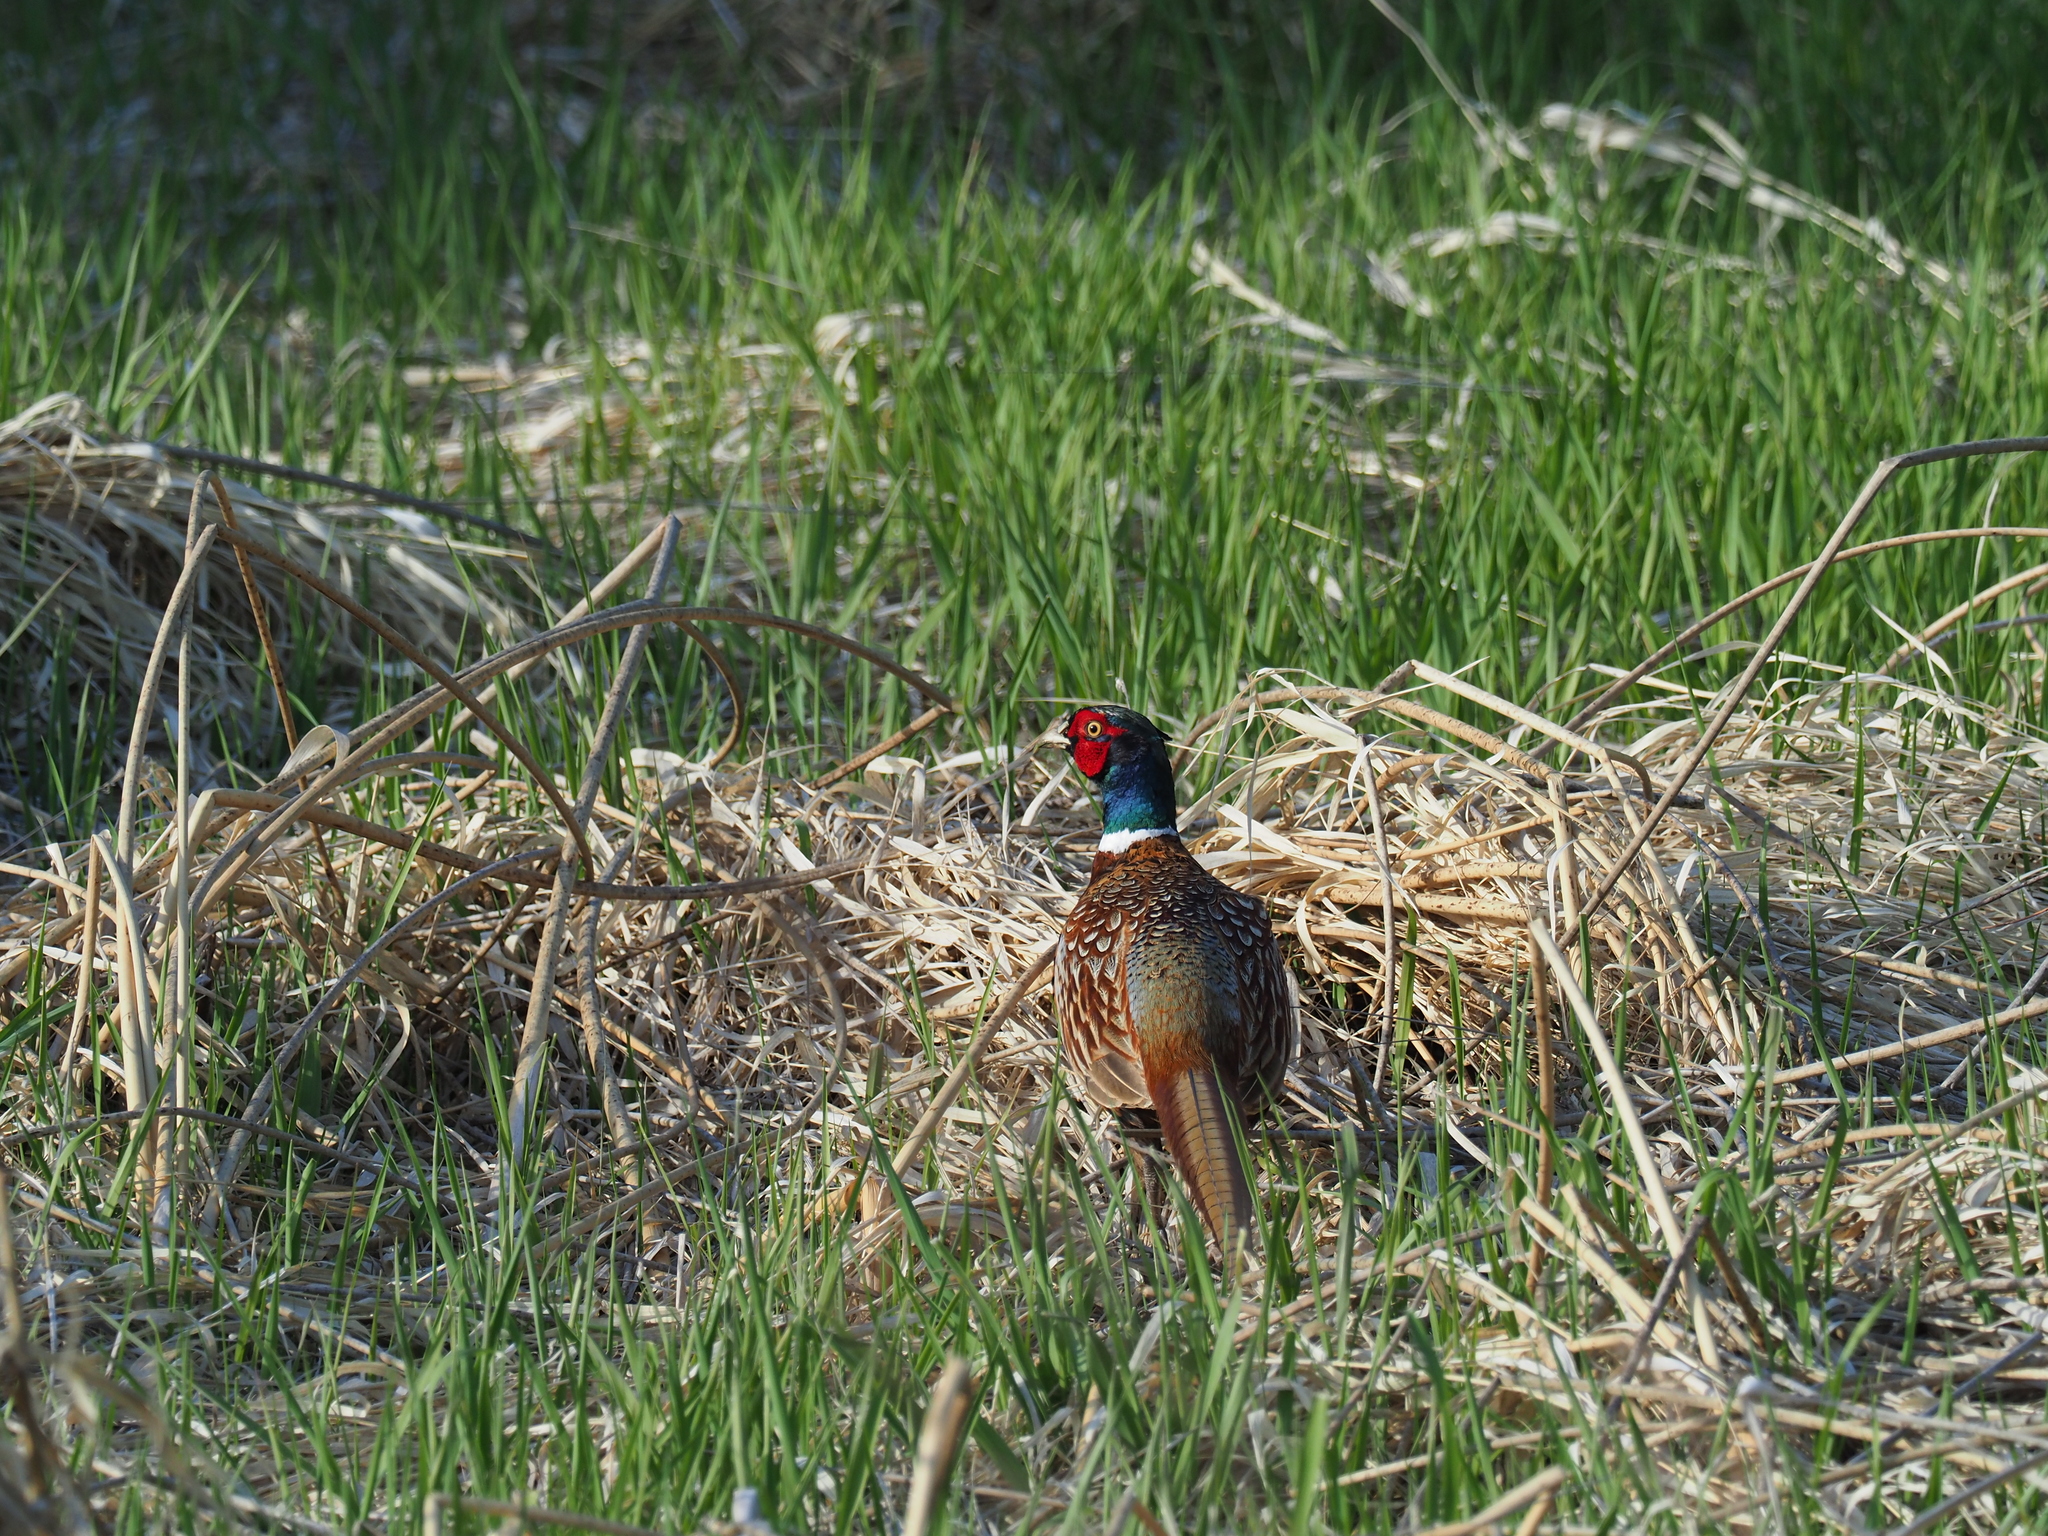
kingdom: Animalia
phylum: Chordata
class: Aves
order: Galliformes
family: Phasianidae
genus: Phasianus
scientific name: Phasianus colchicus
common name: Common pheasant
